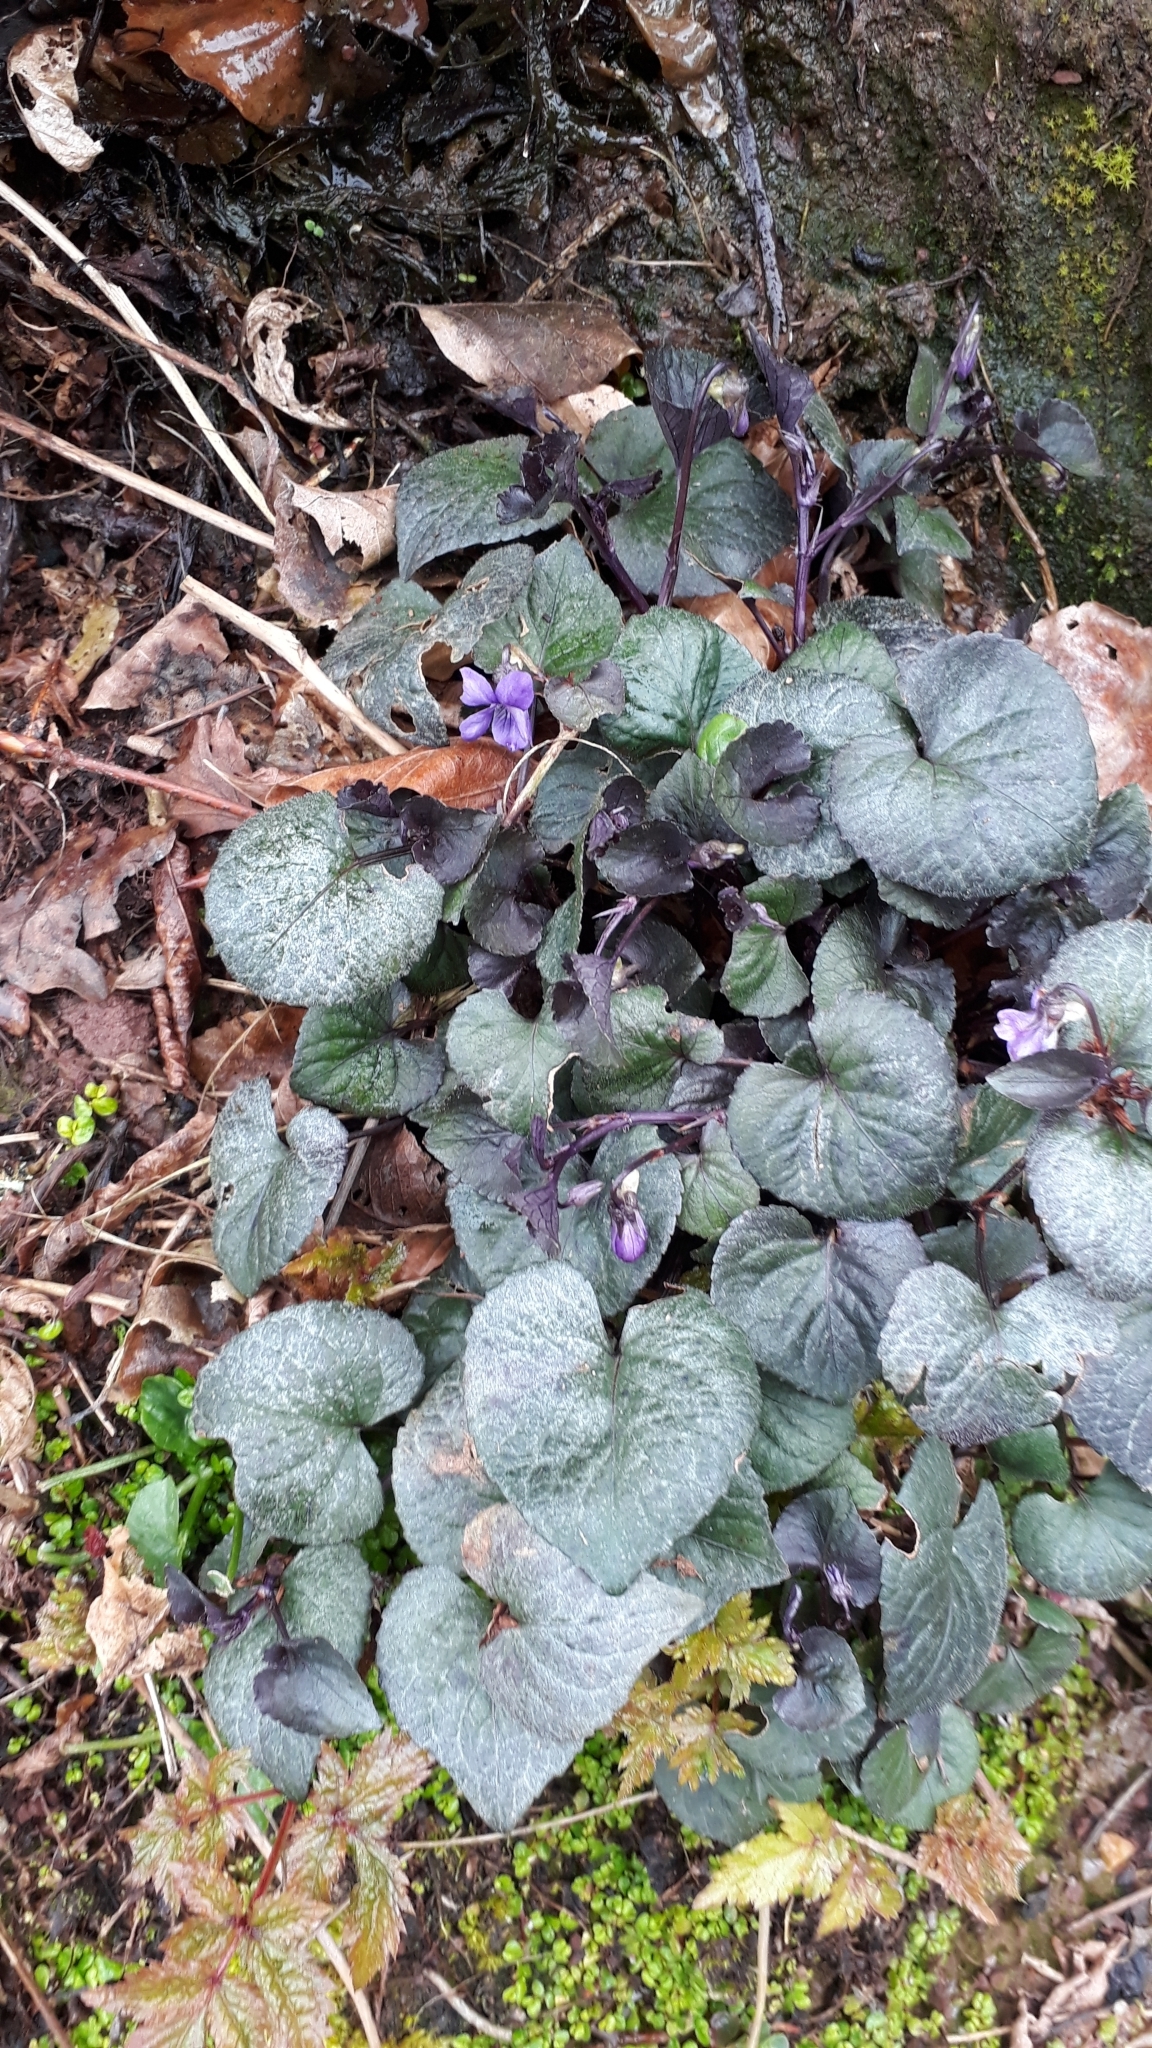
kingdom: Plantae
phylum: Tracheophyta
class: Magnoliopsida
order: Malpighiales
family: Violaceae
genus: Viola
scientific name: Viola riviniana
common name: Common dog-violet
